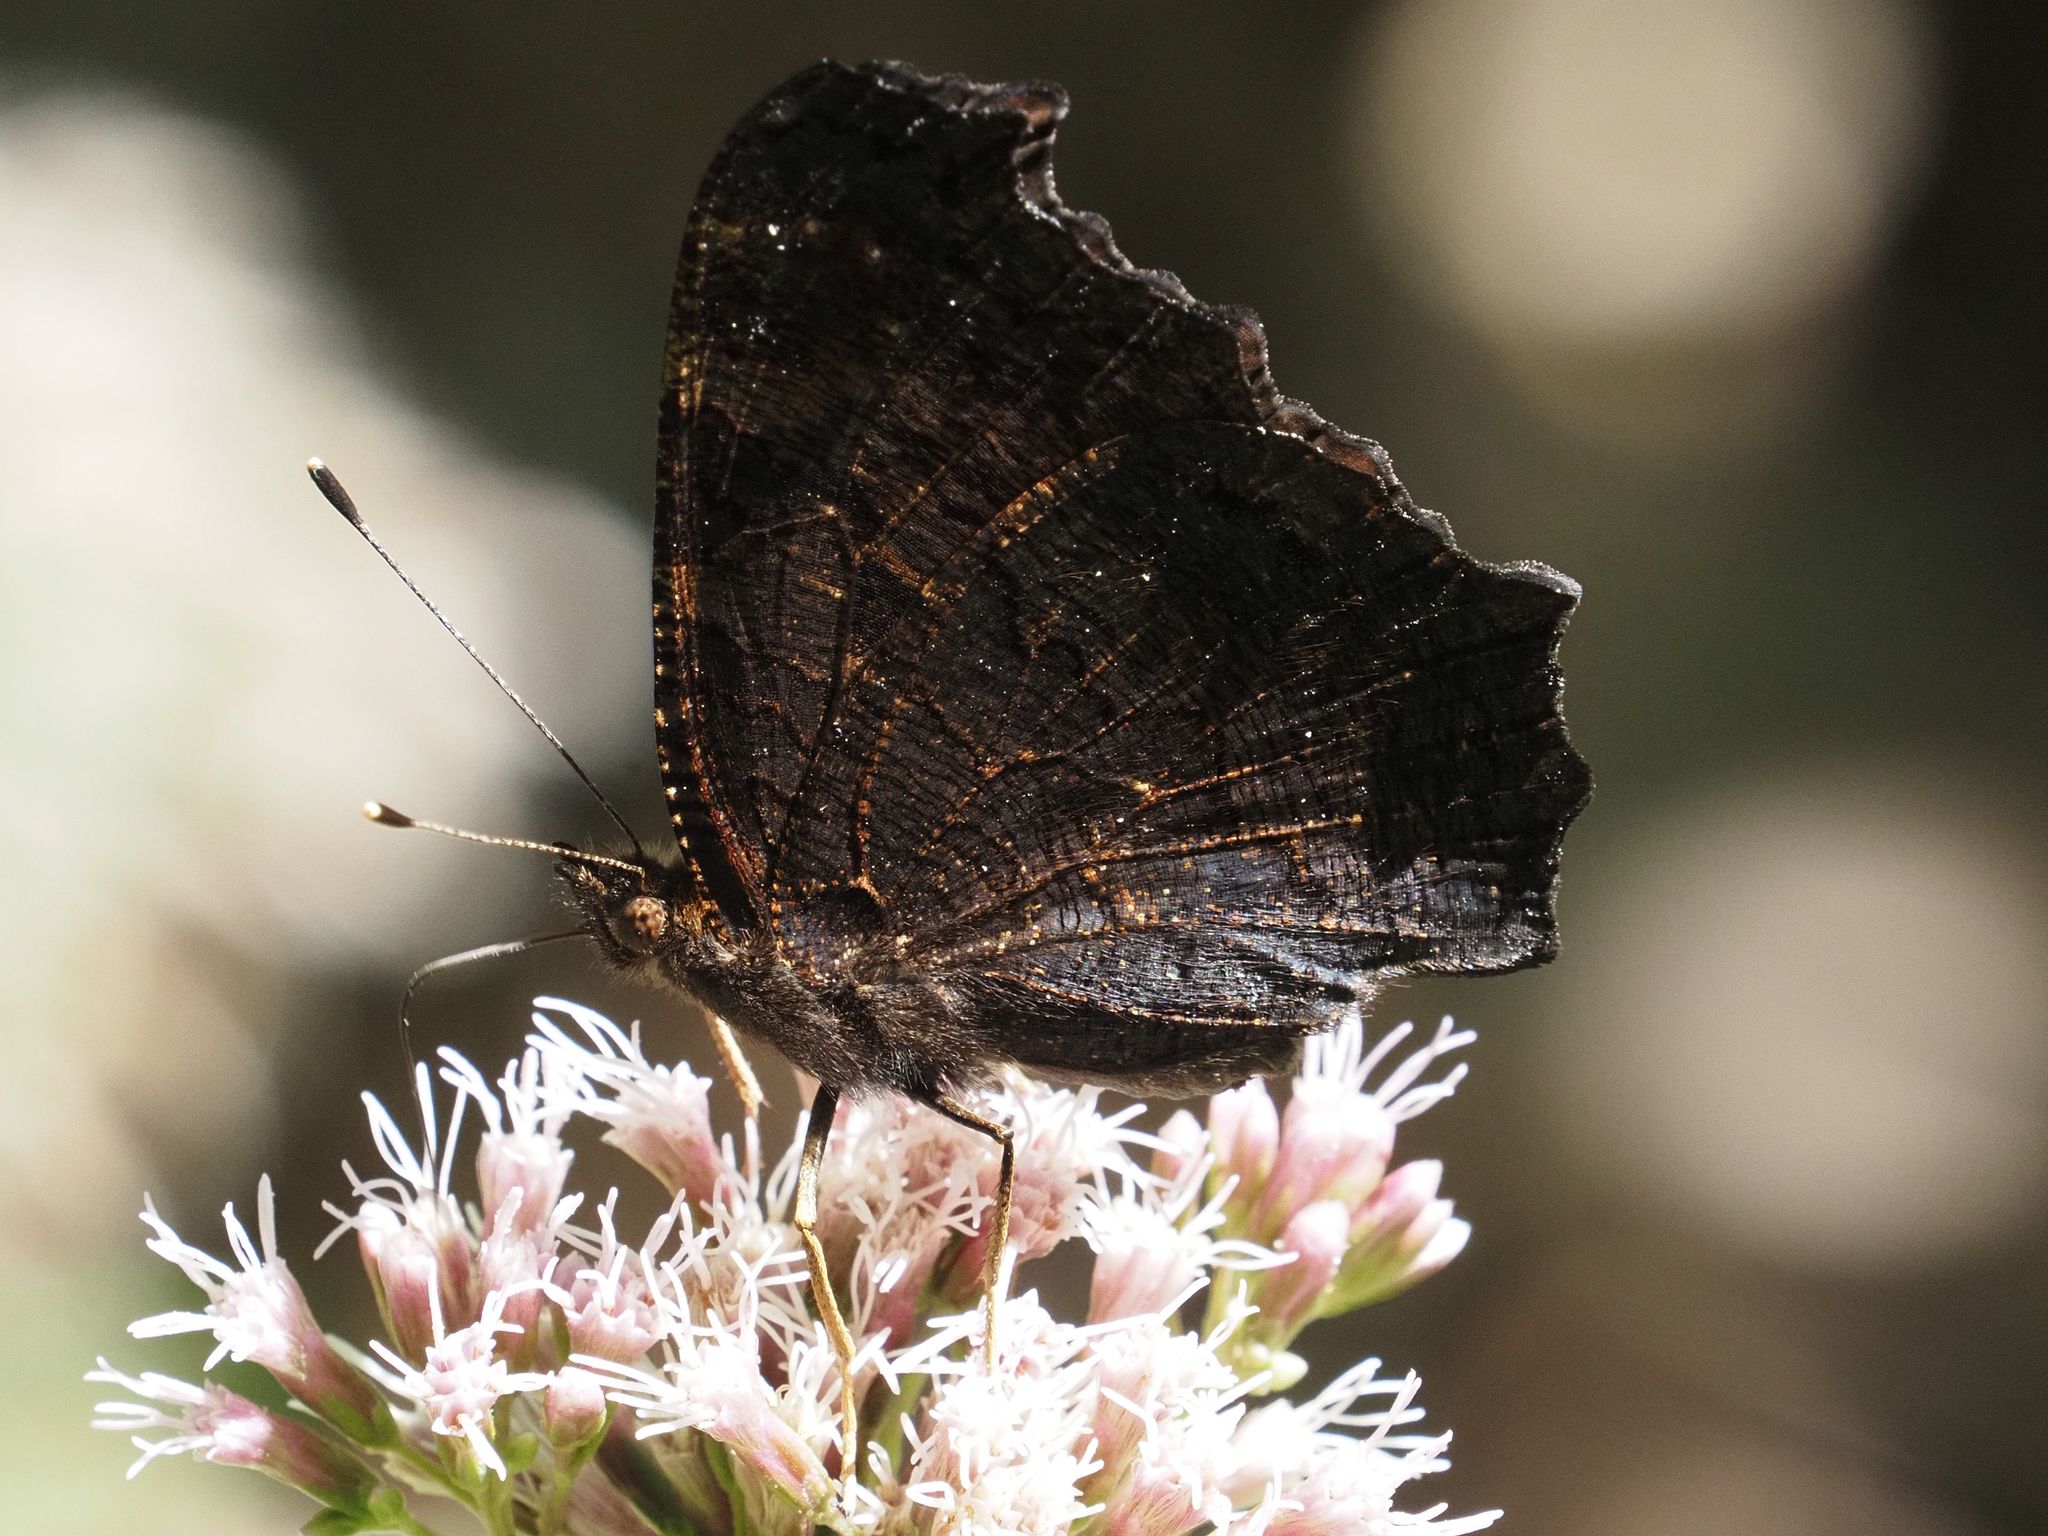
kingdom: Animalia
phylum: Arthropoda
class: Insecta
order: Lepidoptera
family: Nymphalidae
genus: Aglais
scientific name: Aglais io
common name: Peacock
